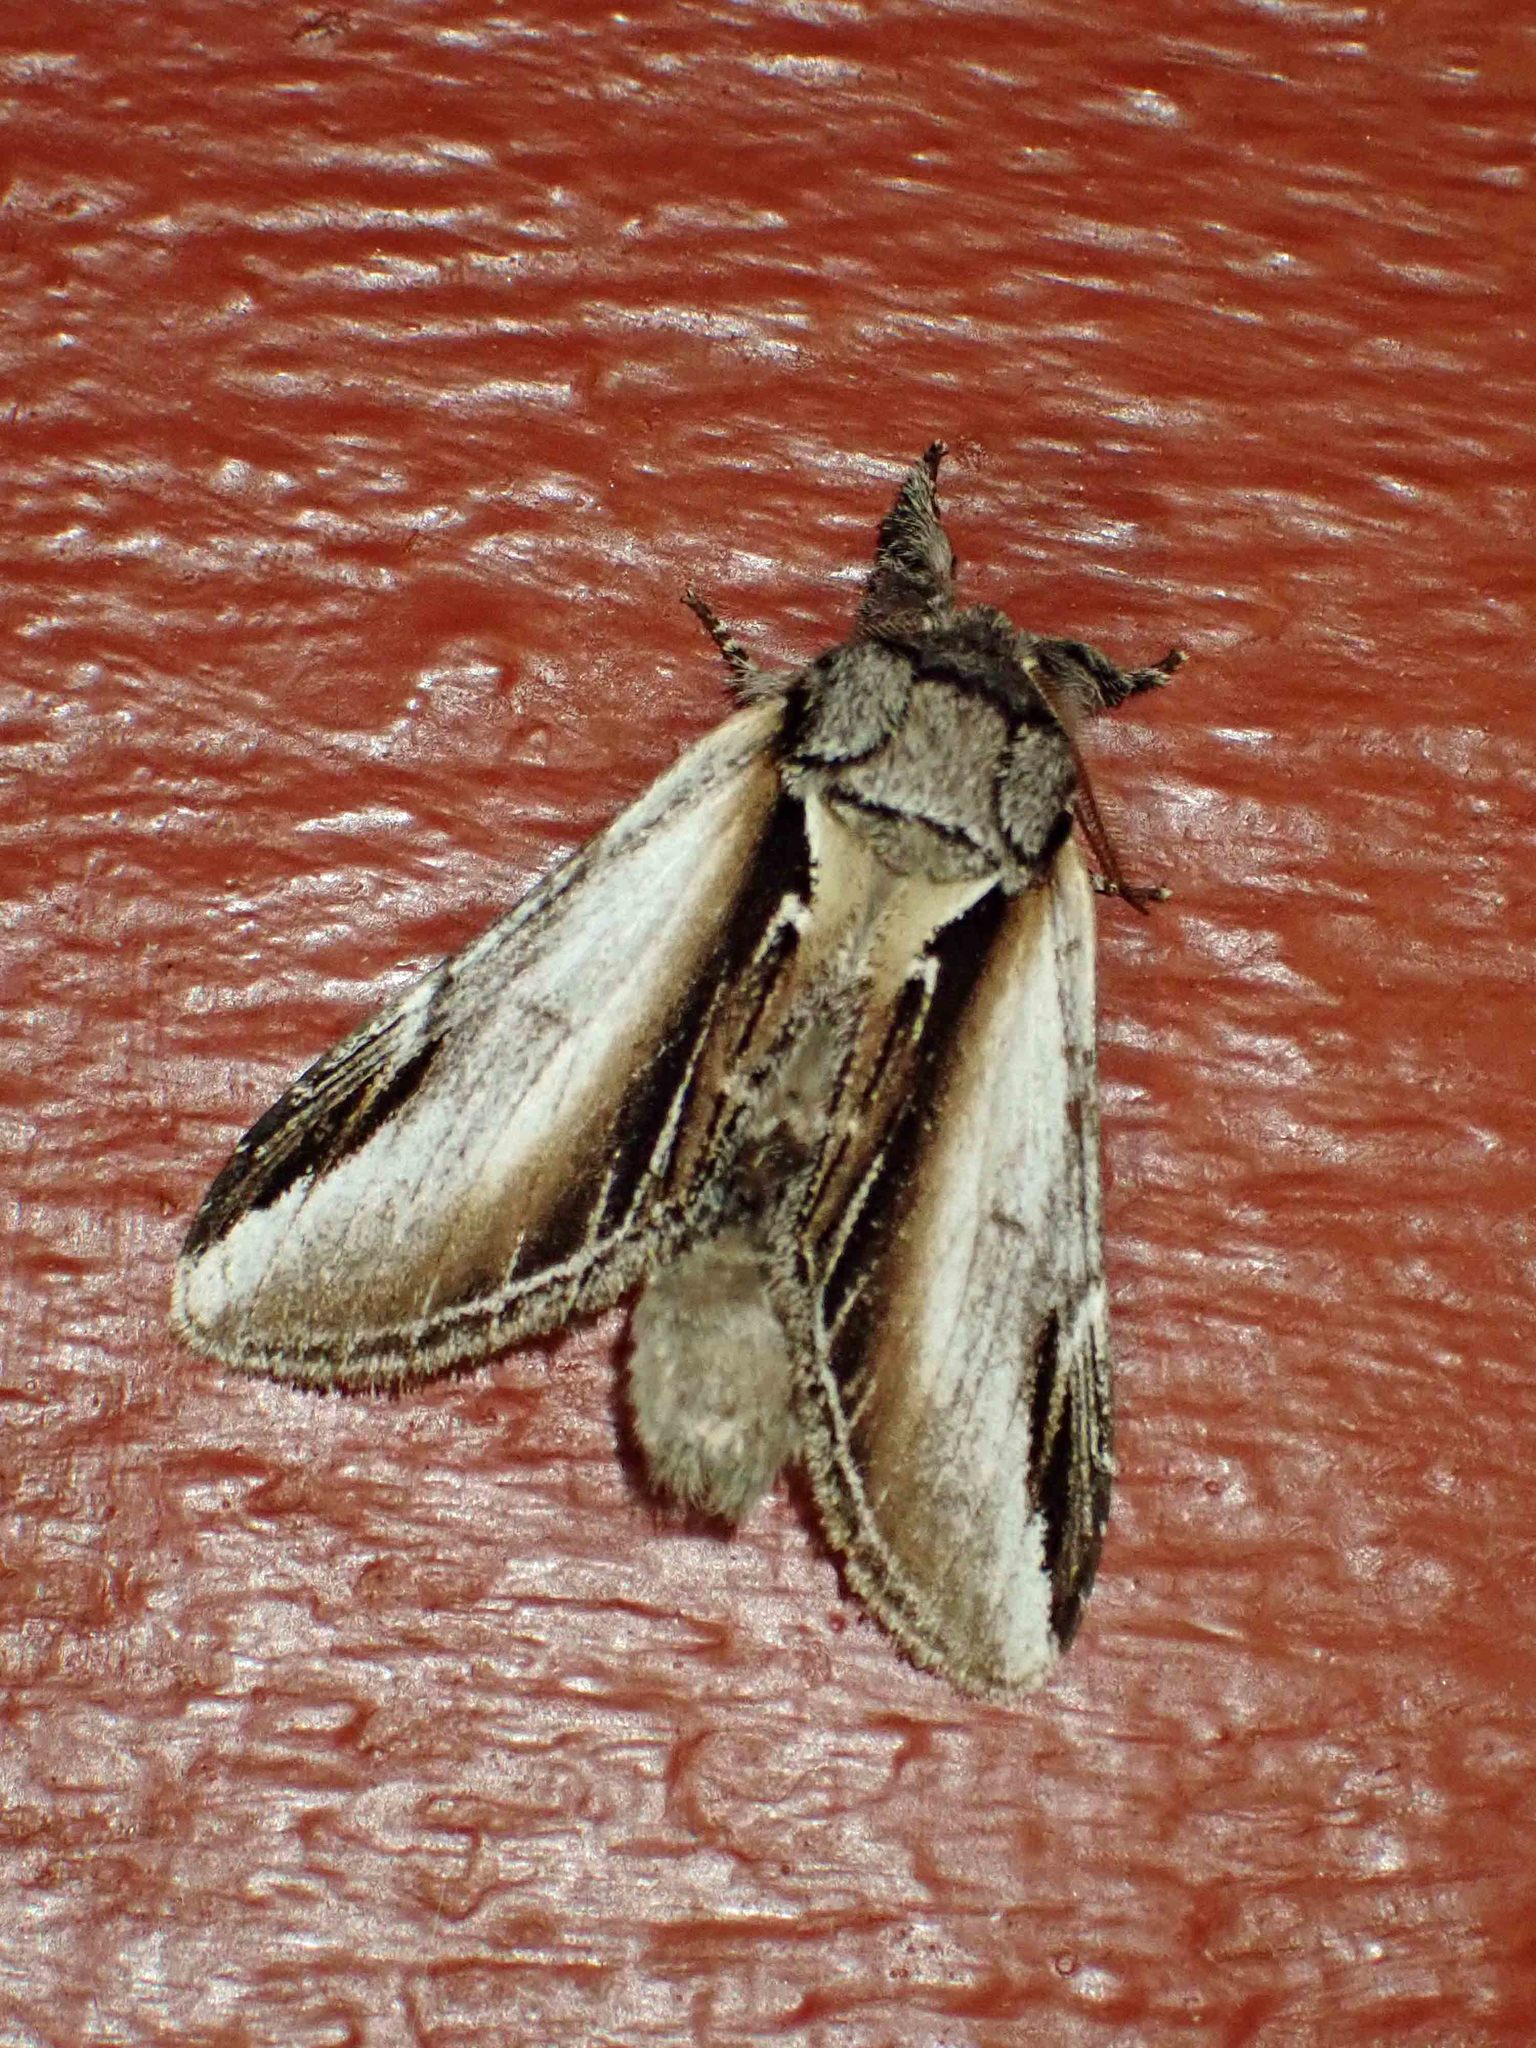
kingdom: Animalia
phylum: Arthropoda
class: Insecta
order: Lepidoptera
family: Notodontidae
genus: Pheosia
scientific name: Pheosia rimosa
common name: Black-rimmed prominent
